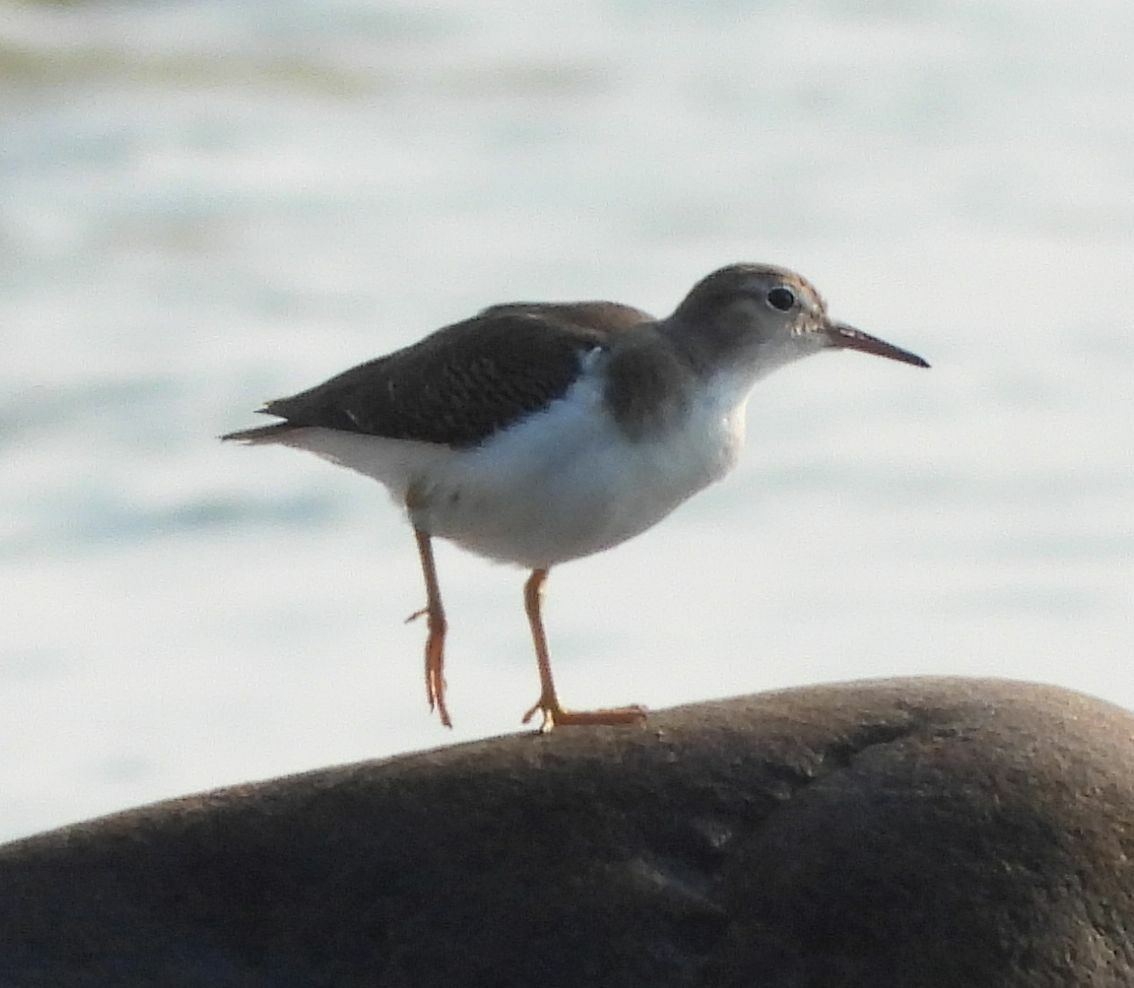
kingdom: Animalia
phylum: Chordata
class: Aves
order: Charadriiformes
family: Scolopacidae
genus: Actitis
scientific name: Actitis macularius
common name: Spotted sandpiper
